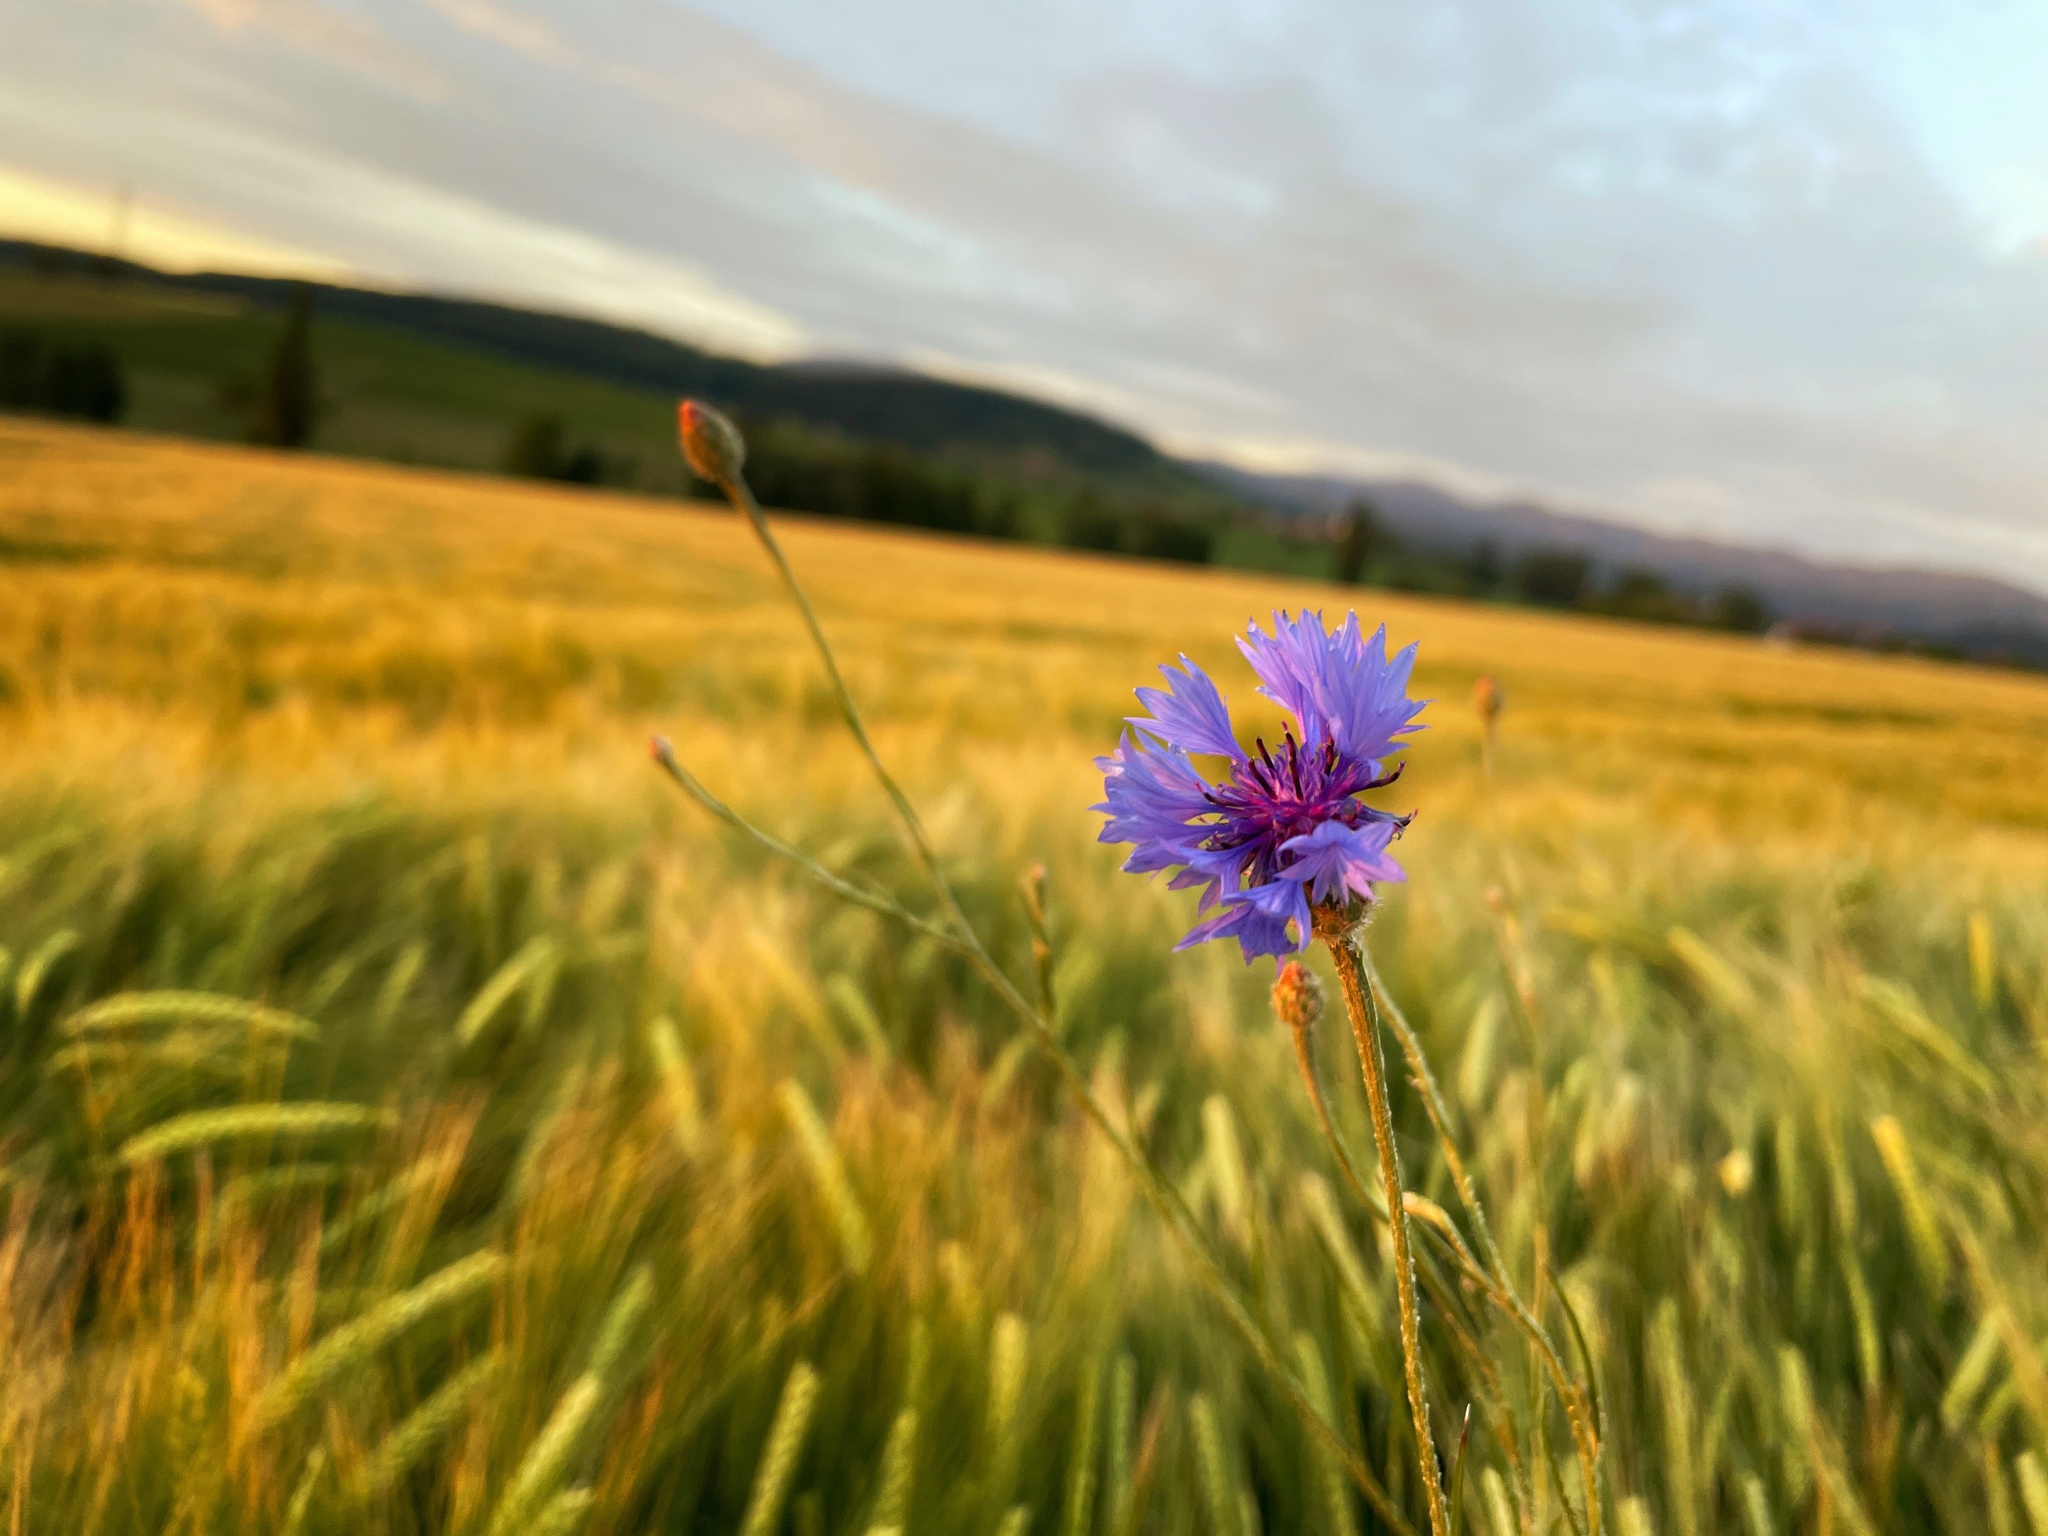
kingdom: Plantae
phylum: Tracheophyta
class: Magnoliopsida
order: Asterales
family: Asteraceae
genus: Centaurea
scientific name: Centaurea cyanus
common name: Cornflower
